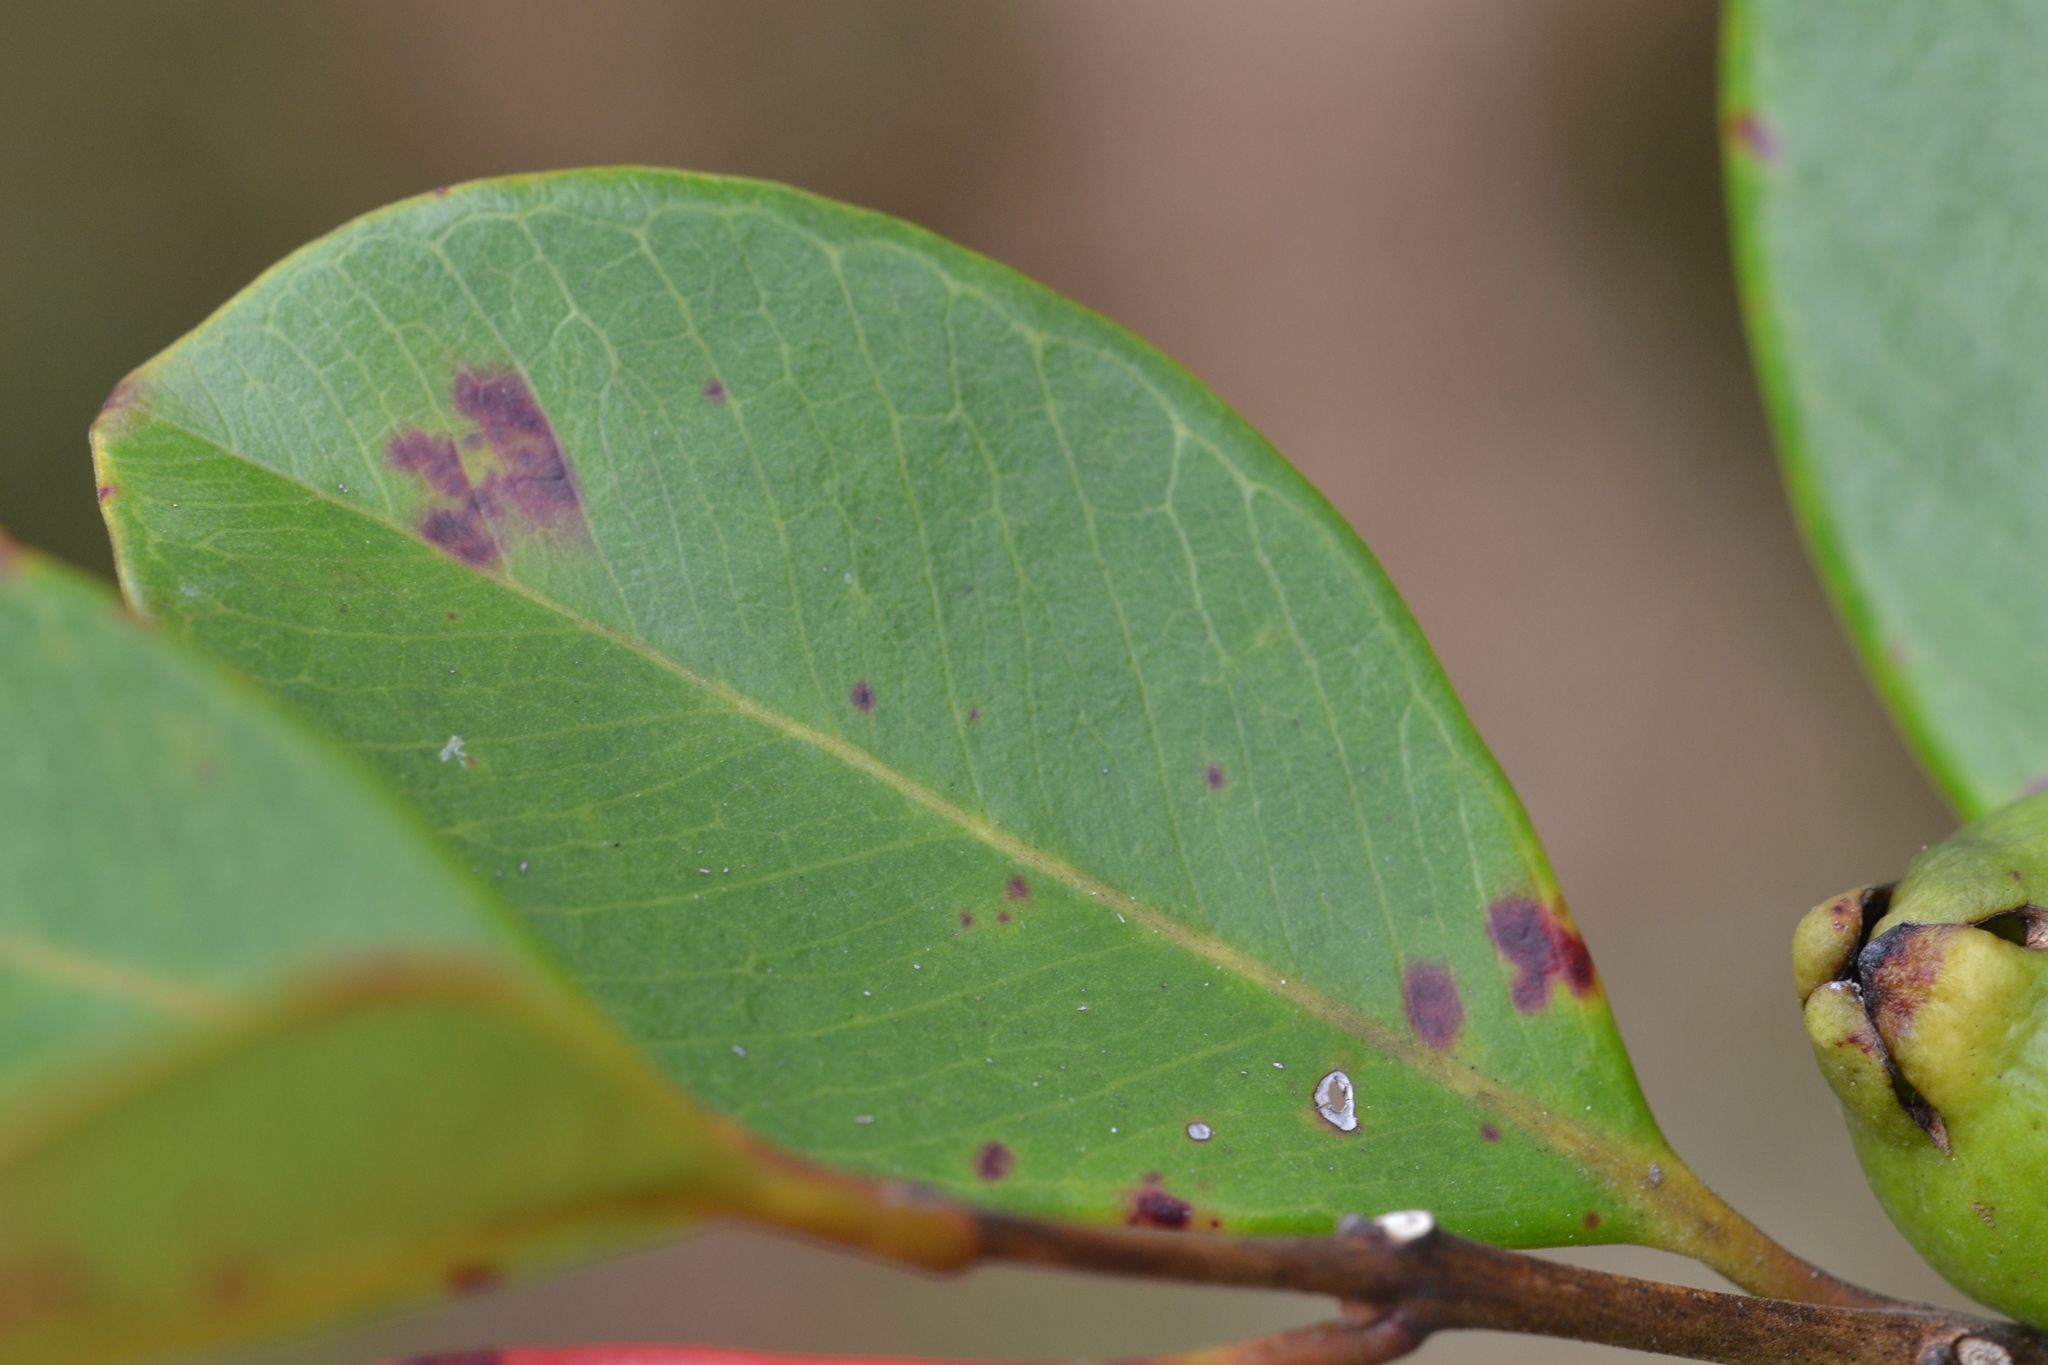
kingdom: Plantae
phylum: Tracheophyta
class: Magnoliopsida
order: Myrtales
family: Myrtaceae
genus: Psidium
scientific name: Psidium cattleianum
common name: Strawberry guava
